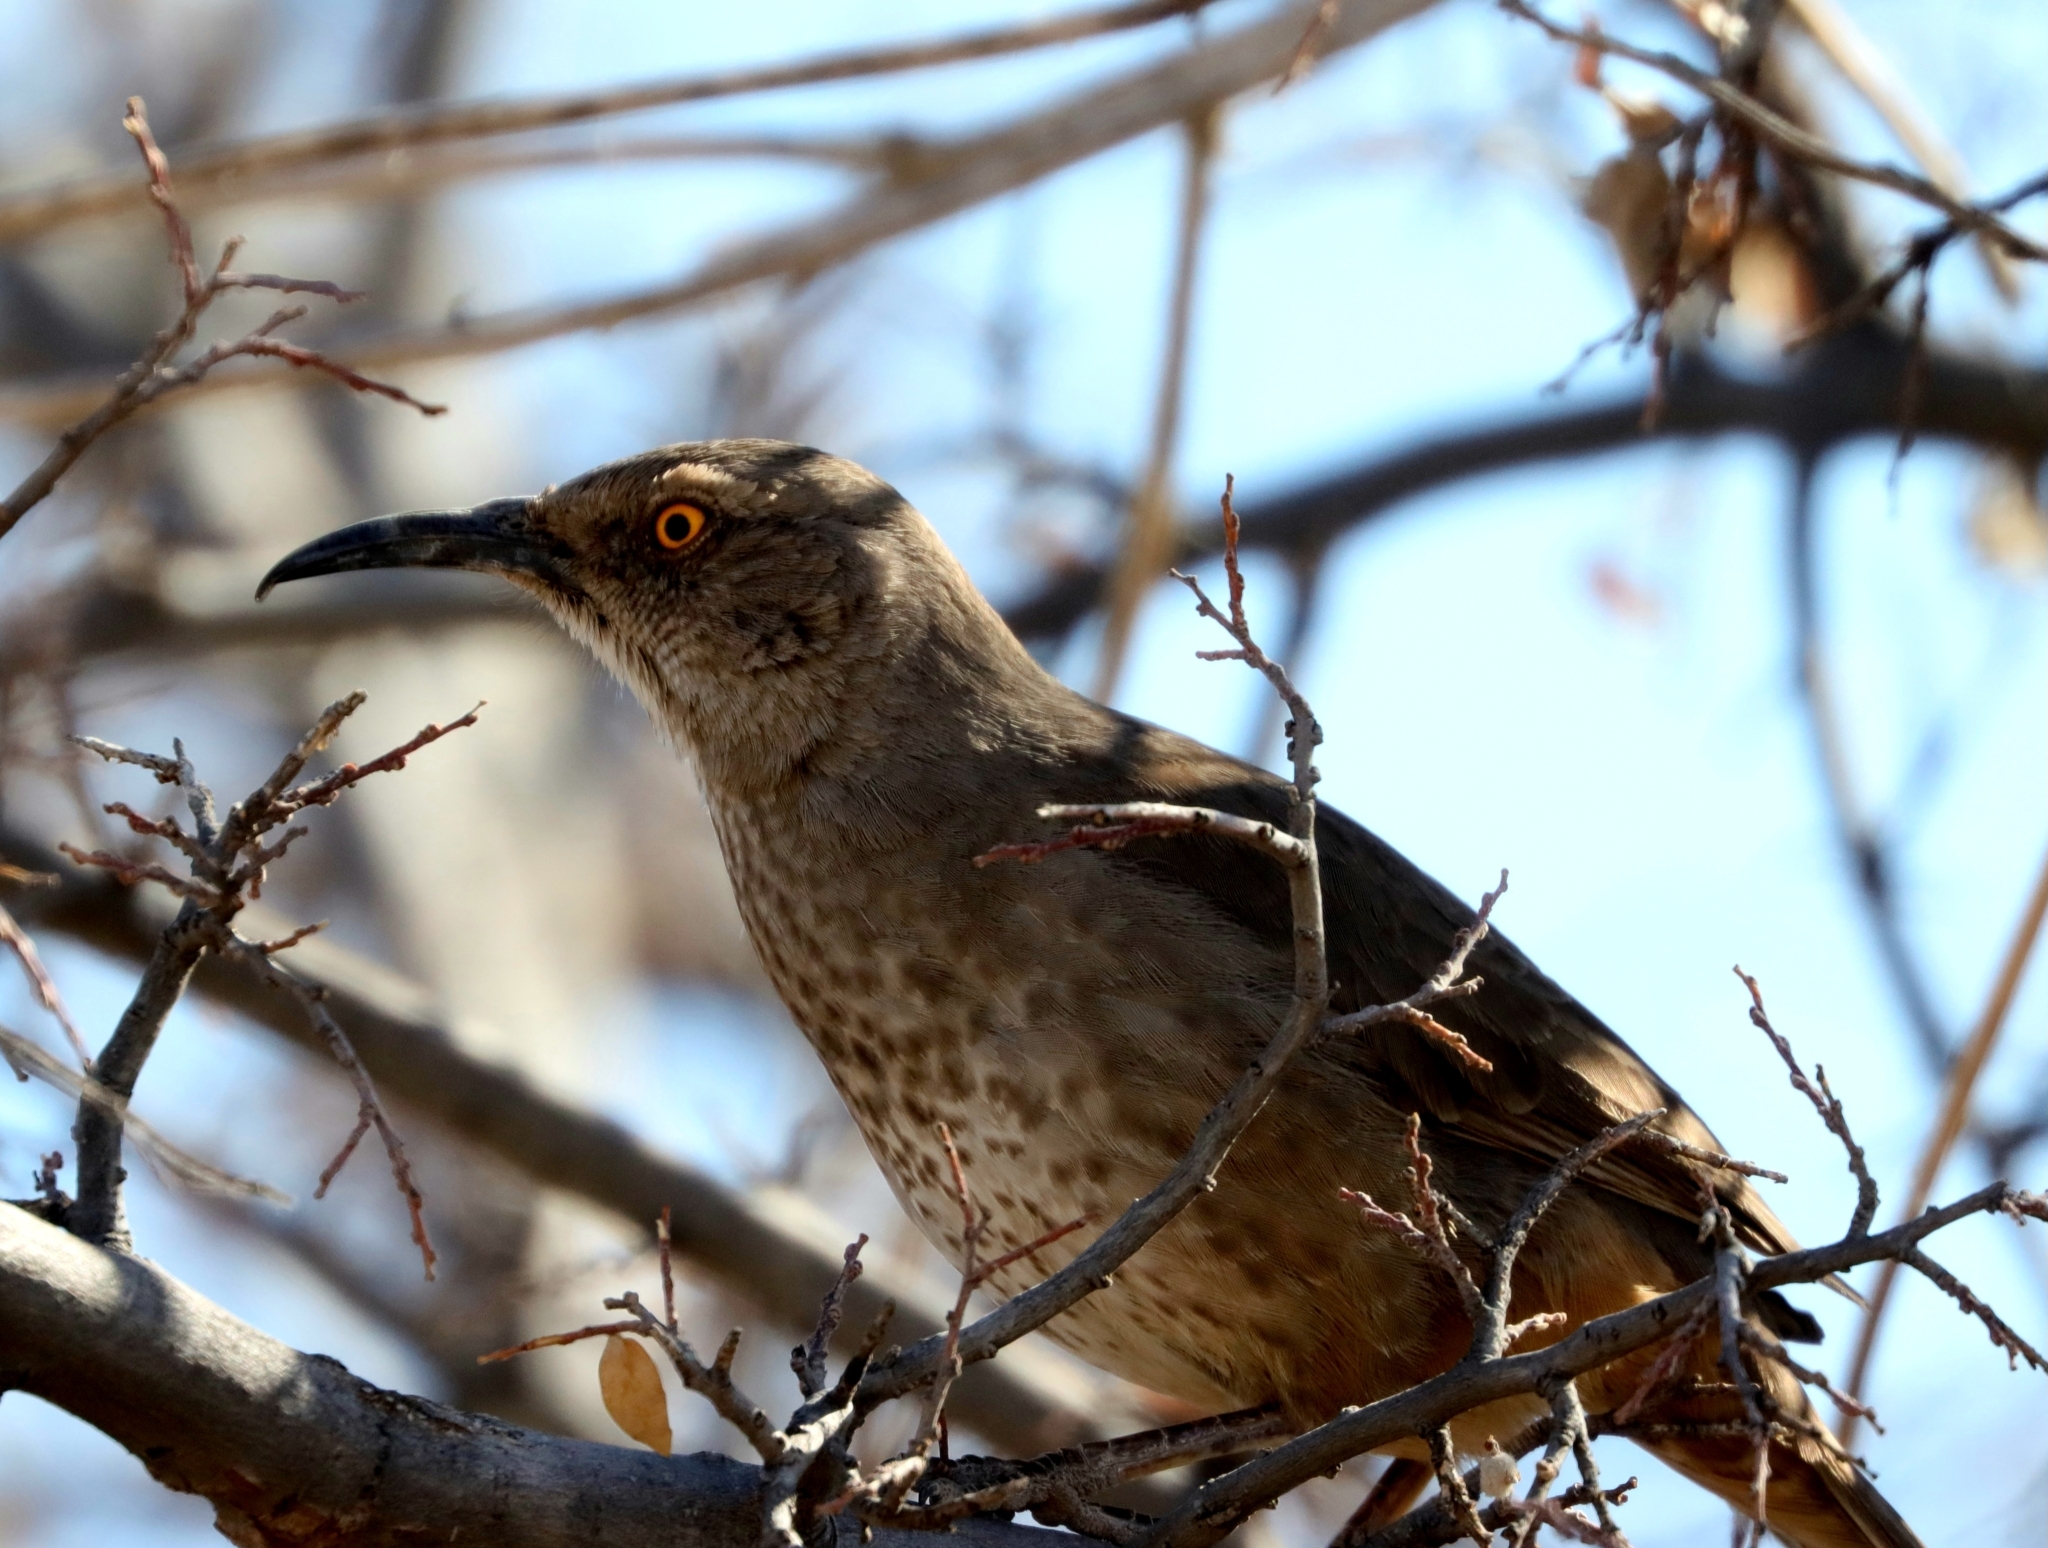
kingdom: Animalia
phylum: Chordata
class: Aves
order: Passeriformes
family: Mimidae
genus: Toxostoma
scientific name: Toxostoma curvirostre
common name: Curve-billed thrasher
